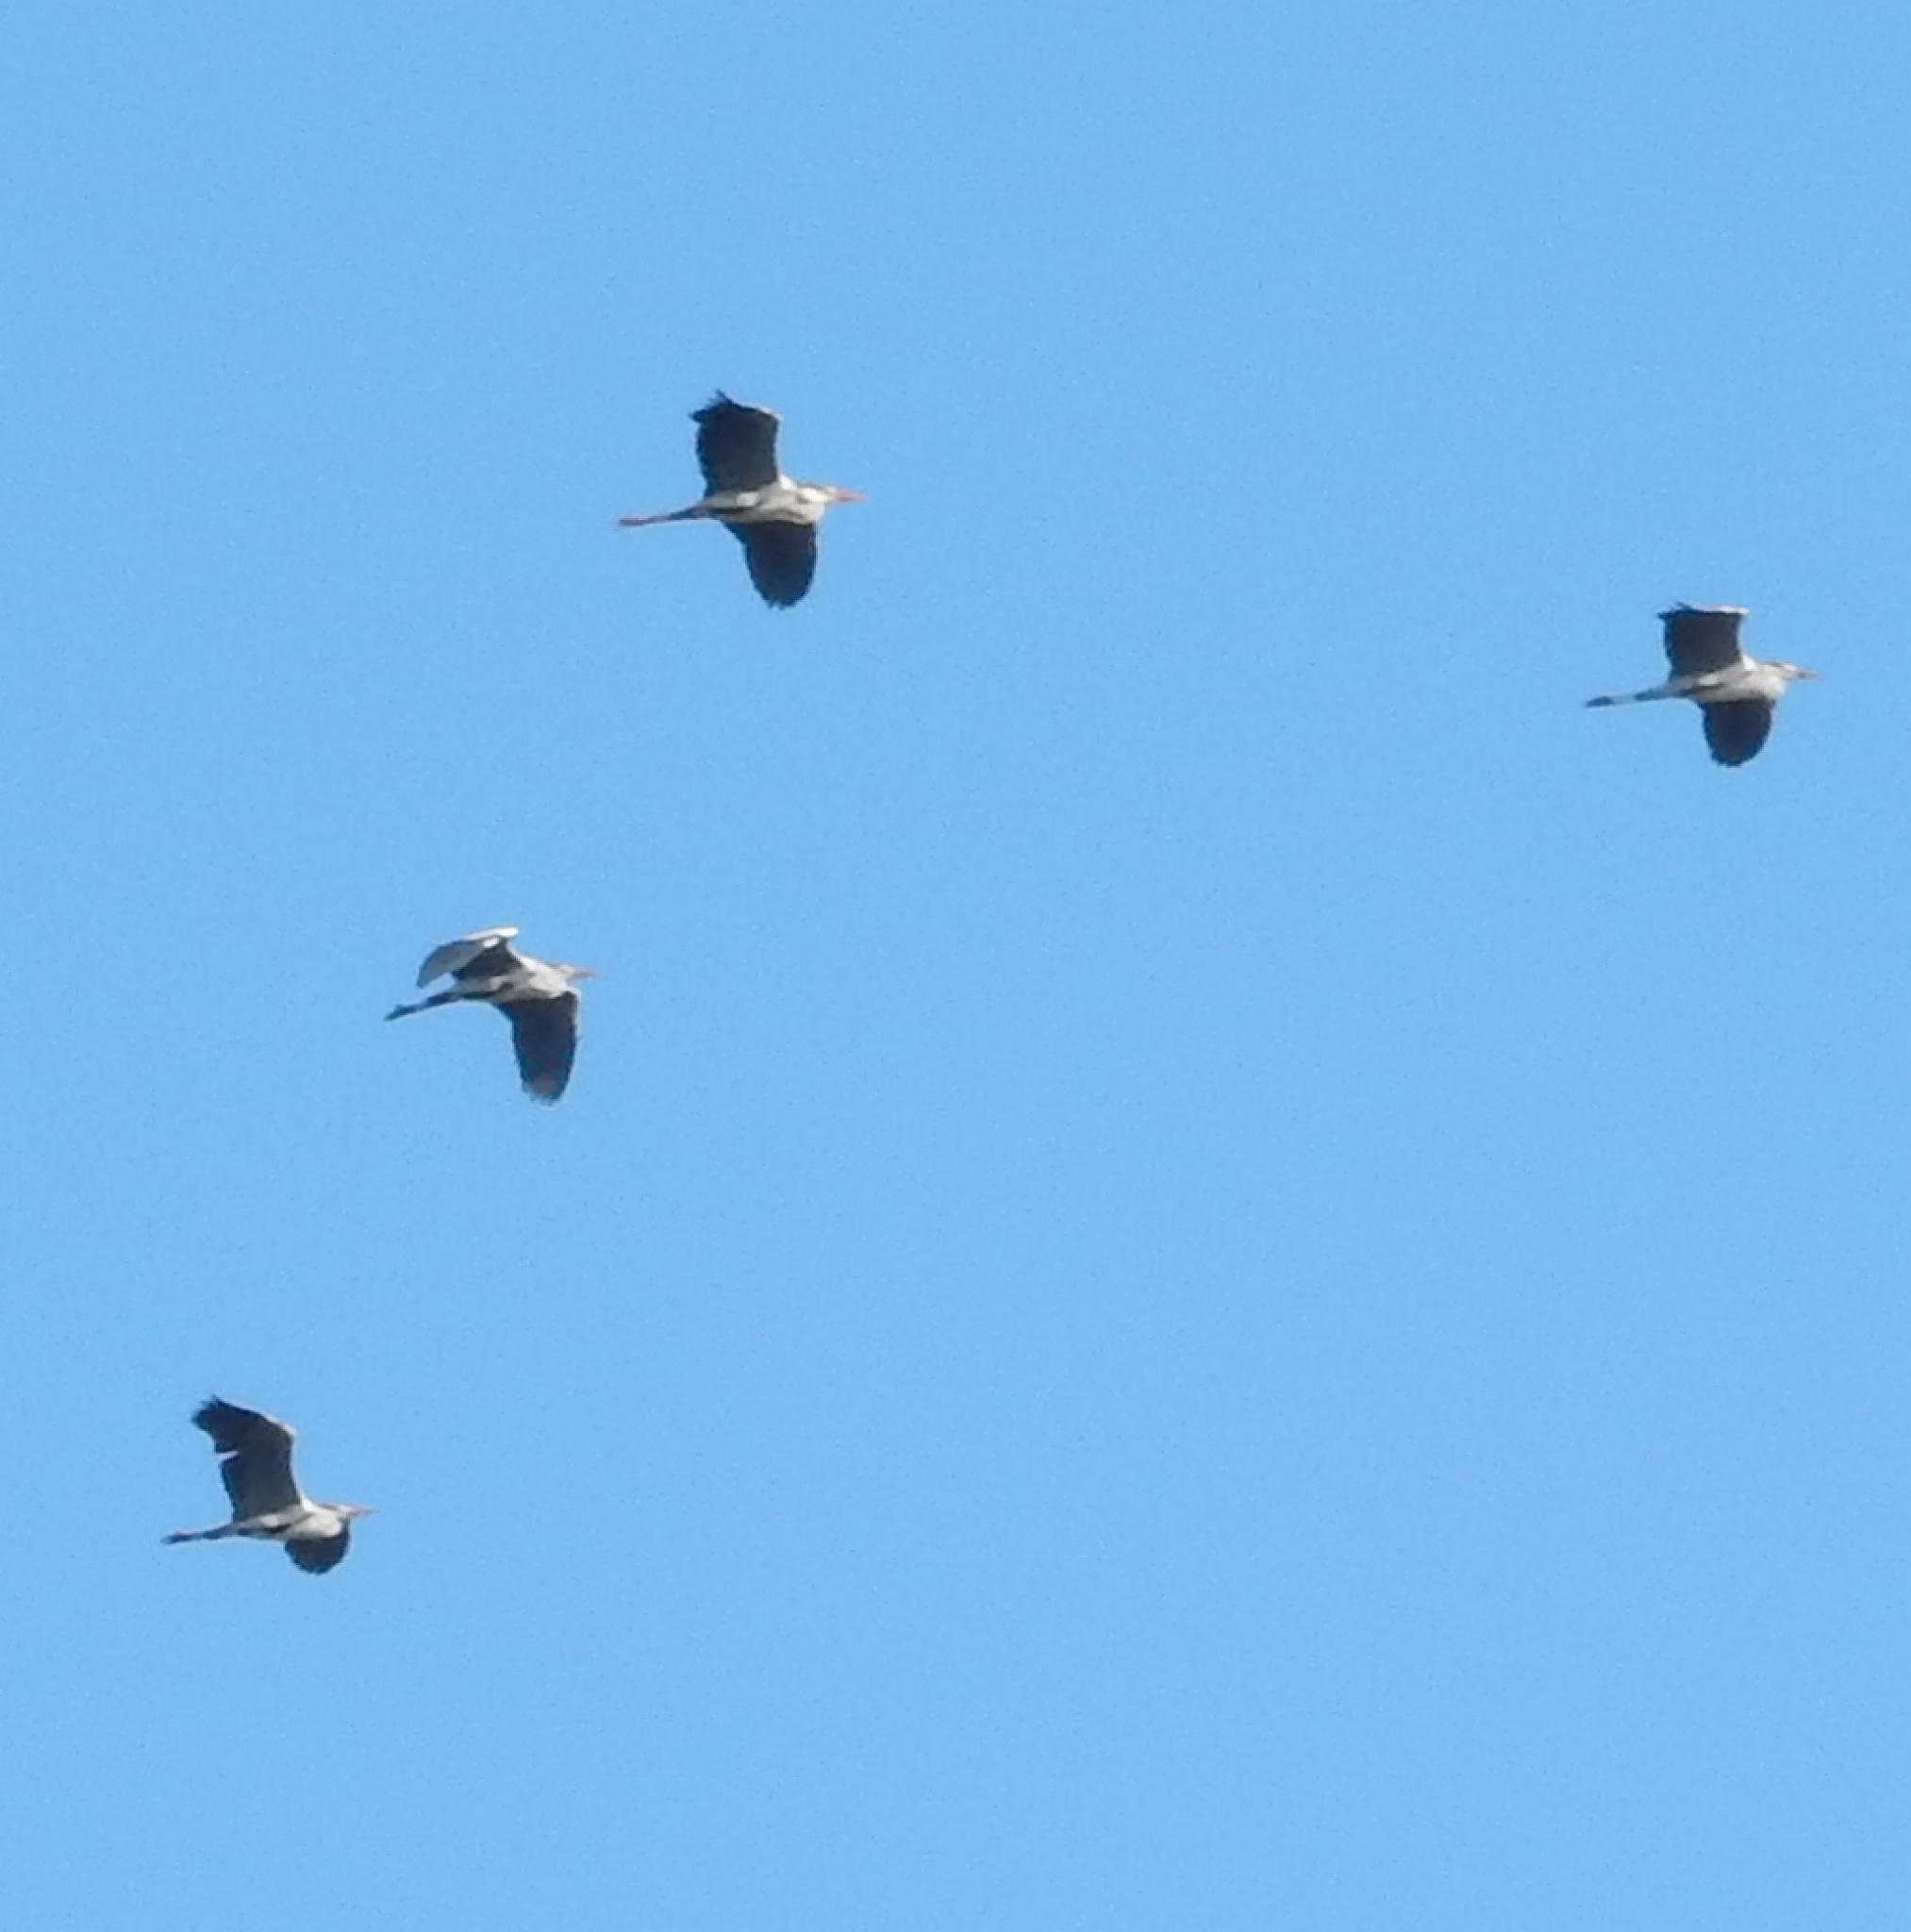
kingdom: Animalia
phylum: Chordata
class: Aves
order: Pelecaniformes
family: Ardeidae
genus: Ardea
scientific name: Ardea cinerea
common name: Grey heron
